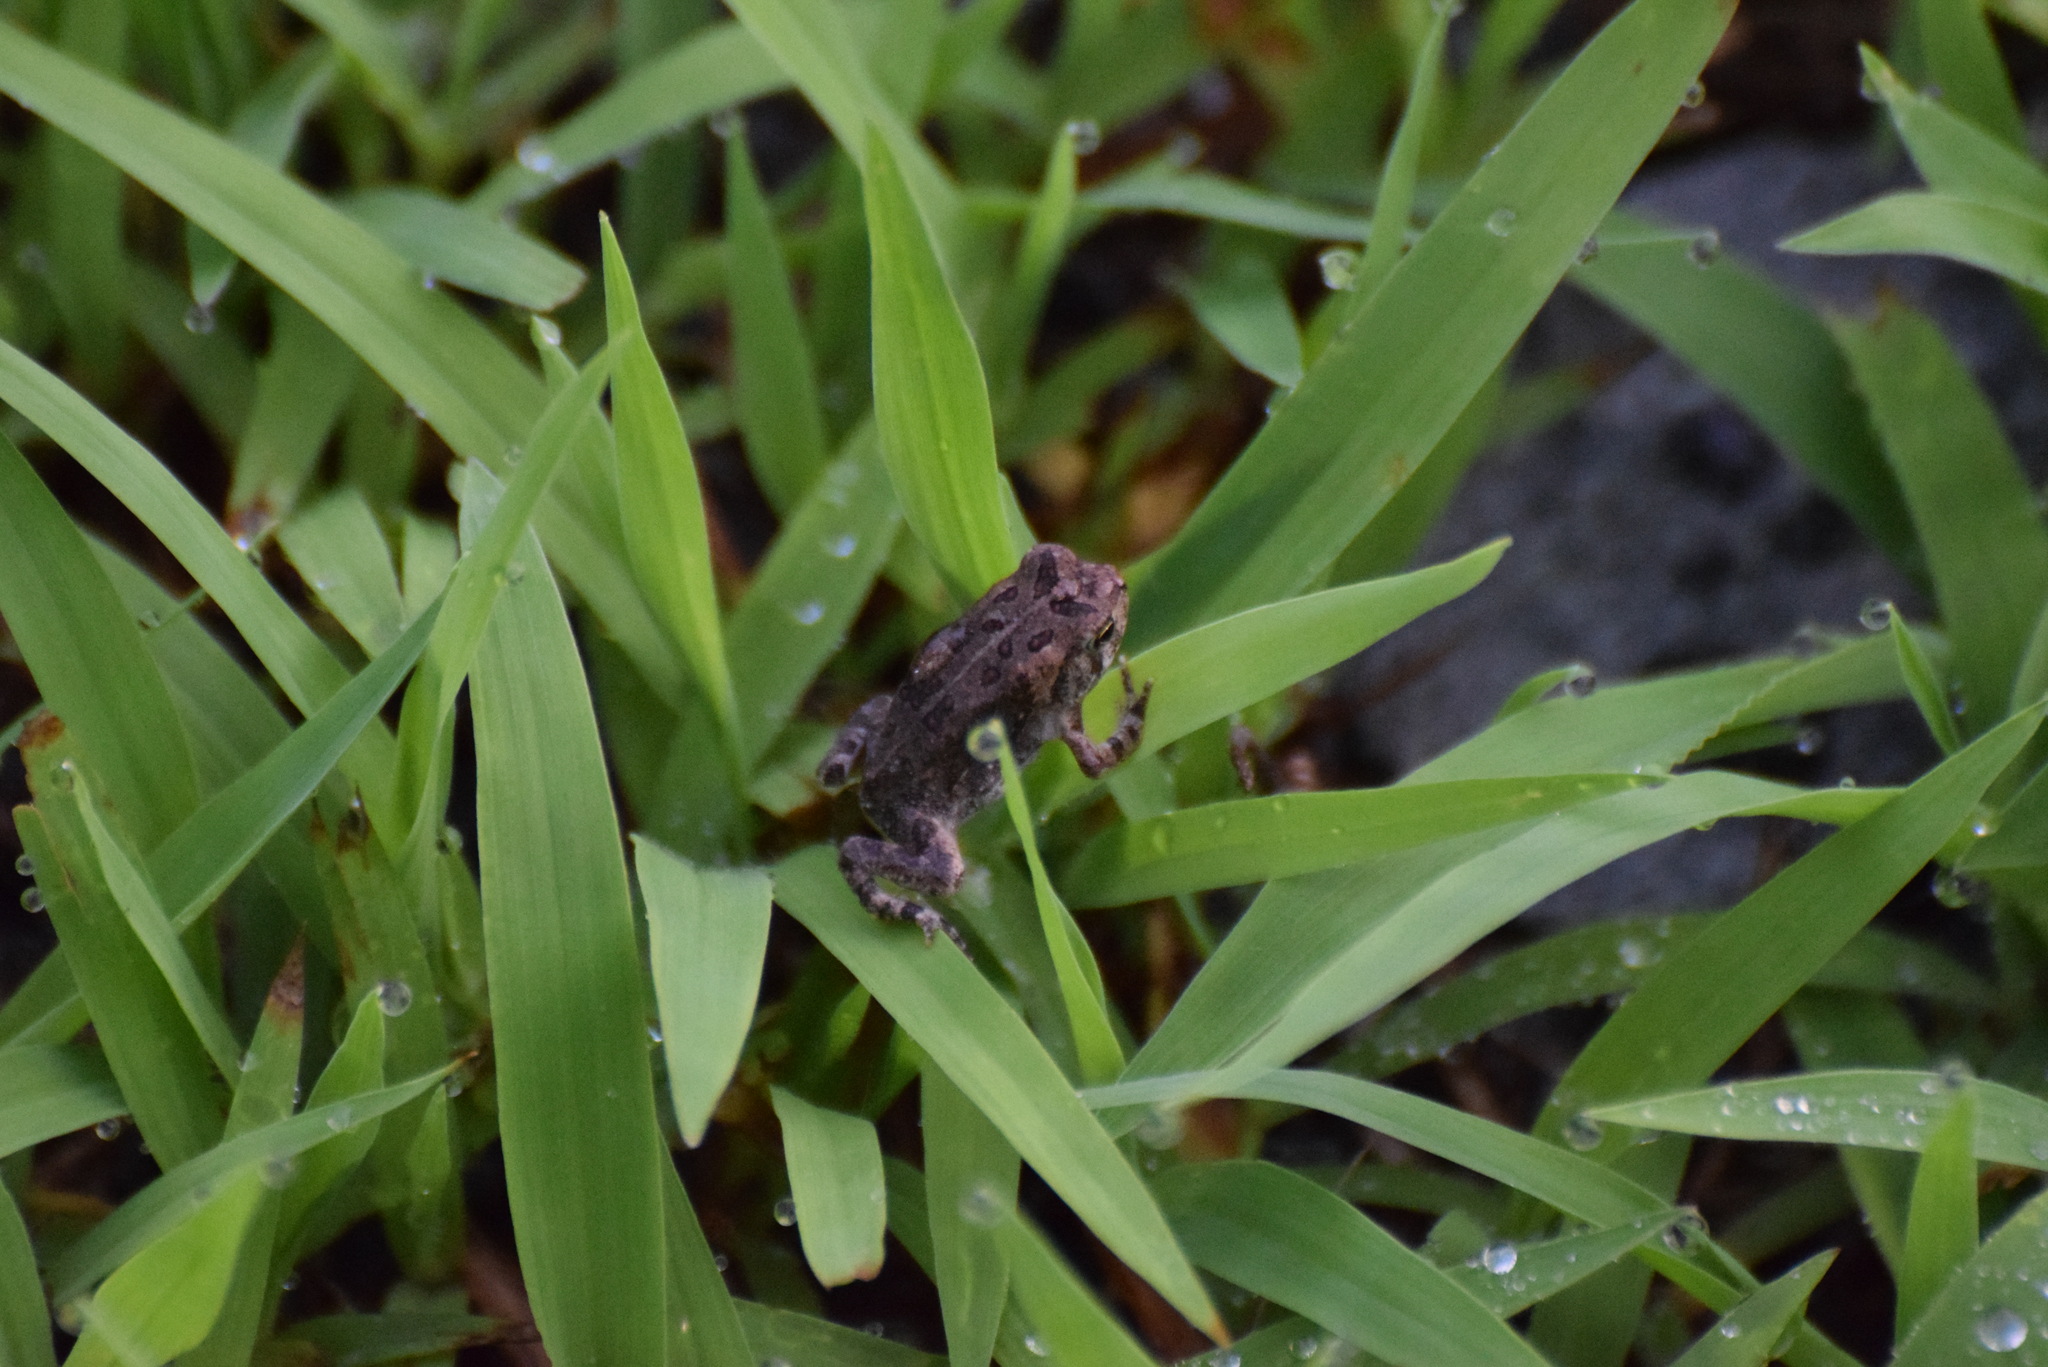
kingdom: Animalia
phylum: Chordata
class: Amphibia
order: Anura
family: Bufonidae
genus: Anaxyrus
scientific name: Anaxyrus fowleri
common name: Fowler's toad
